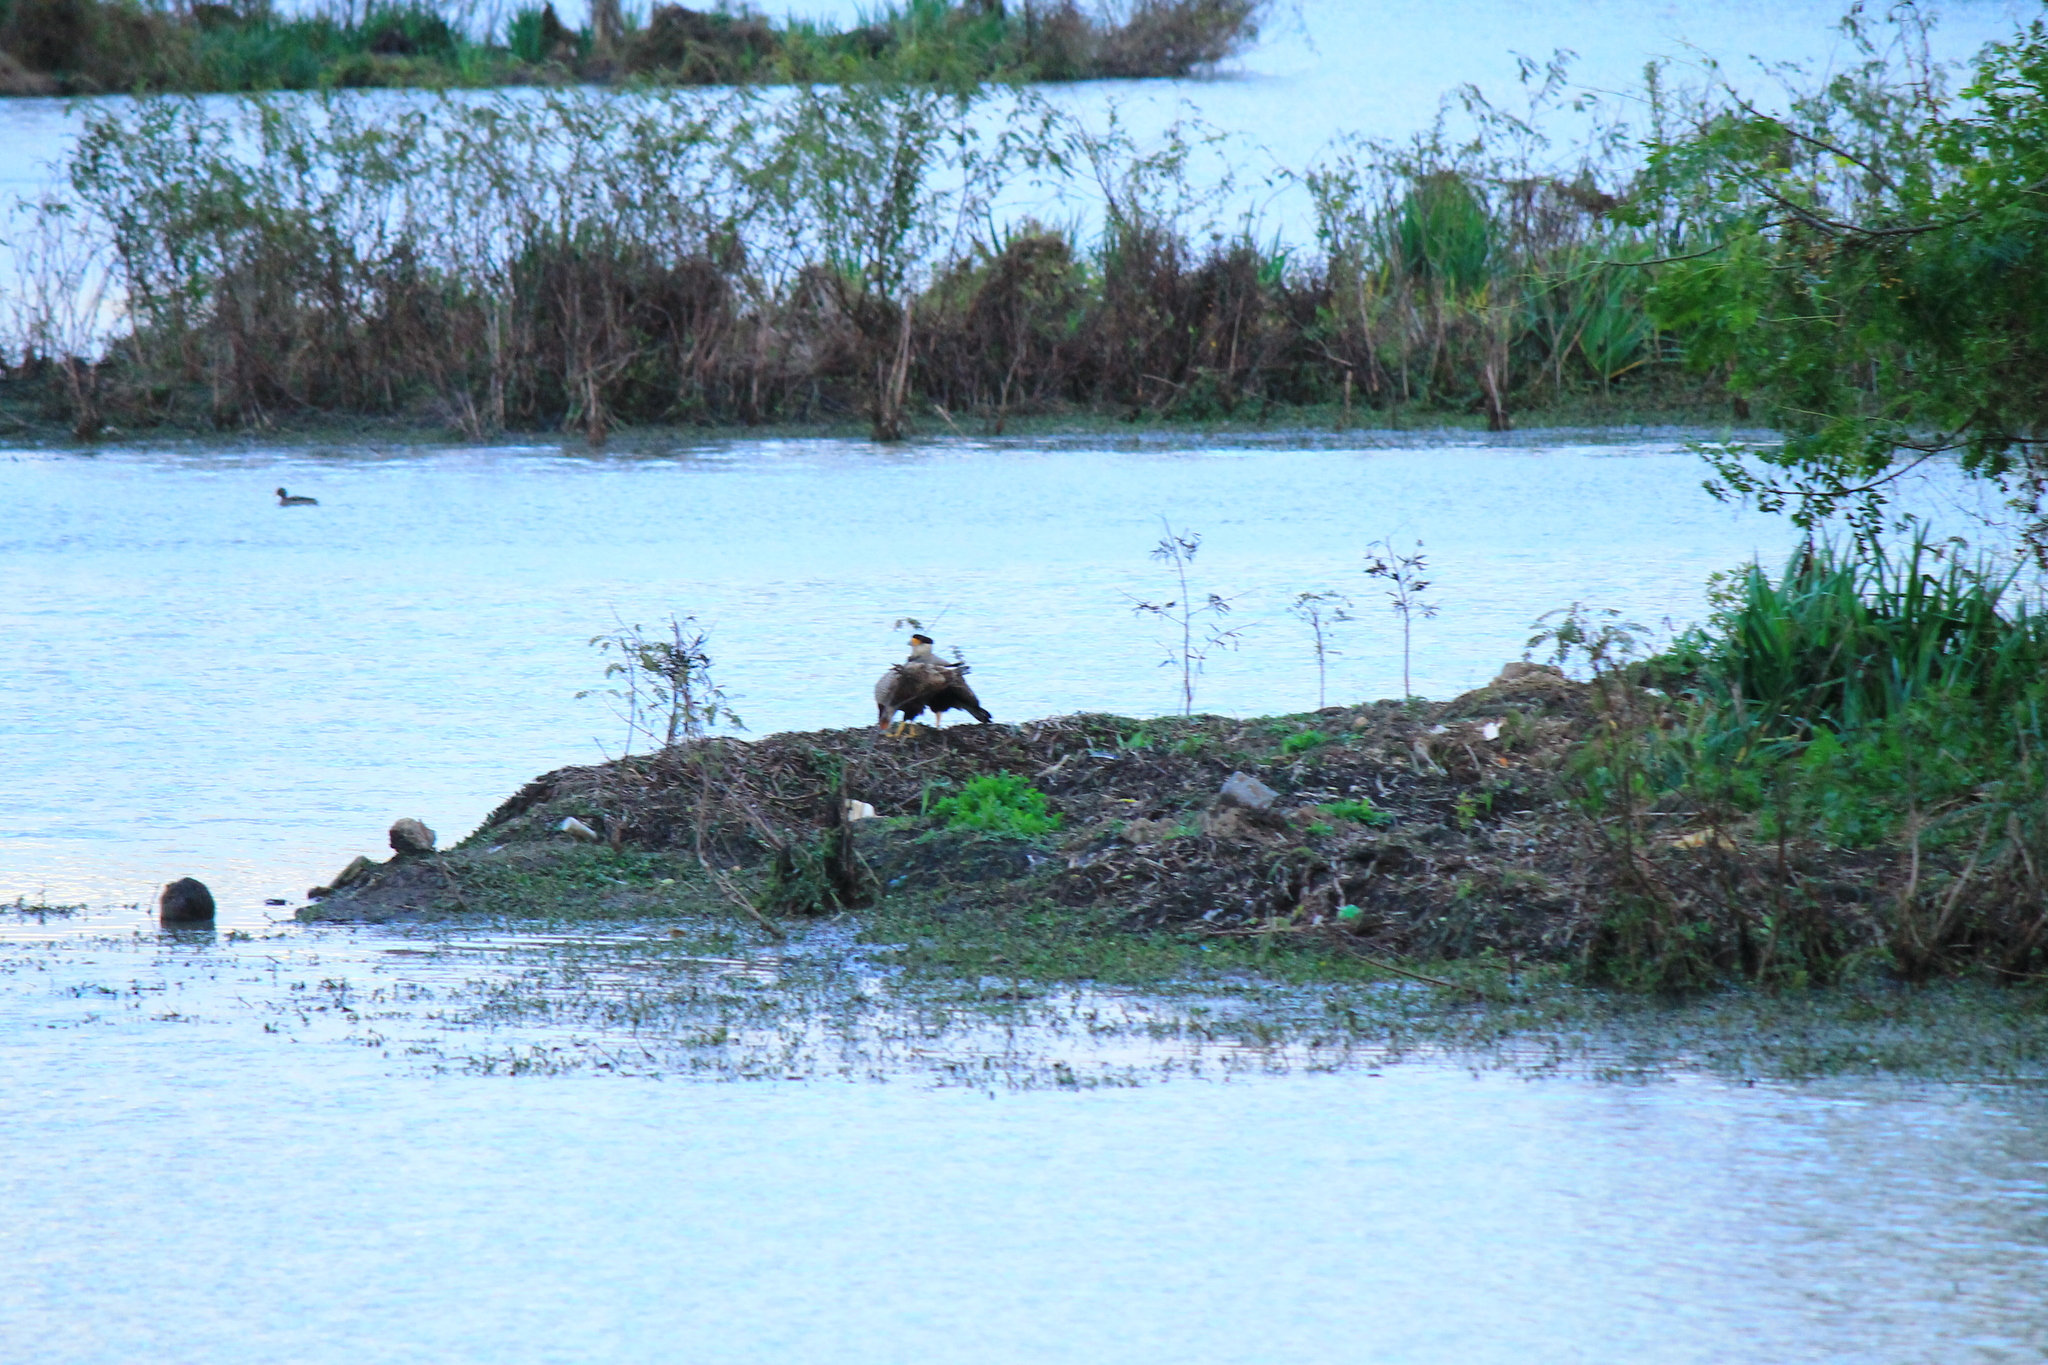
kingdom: Animalia
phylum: Chordata
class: Aves
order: Falconiformes
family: Falconidae
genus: Caracara
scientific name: Caracara plancus
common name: Southern caracara
